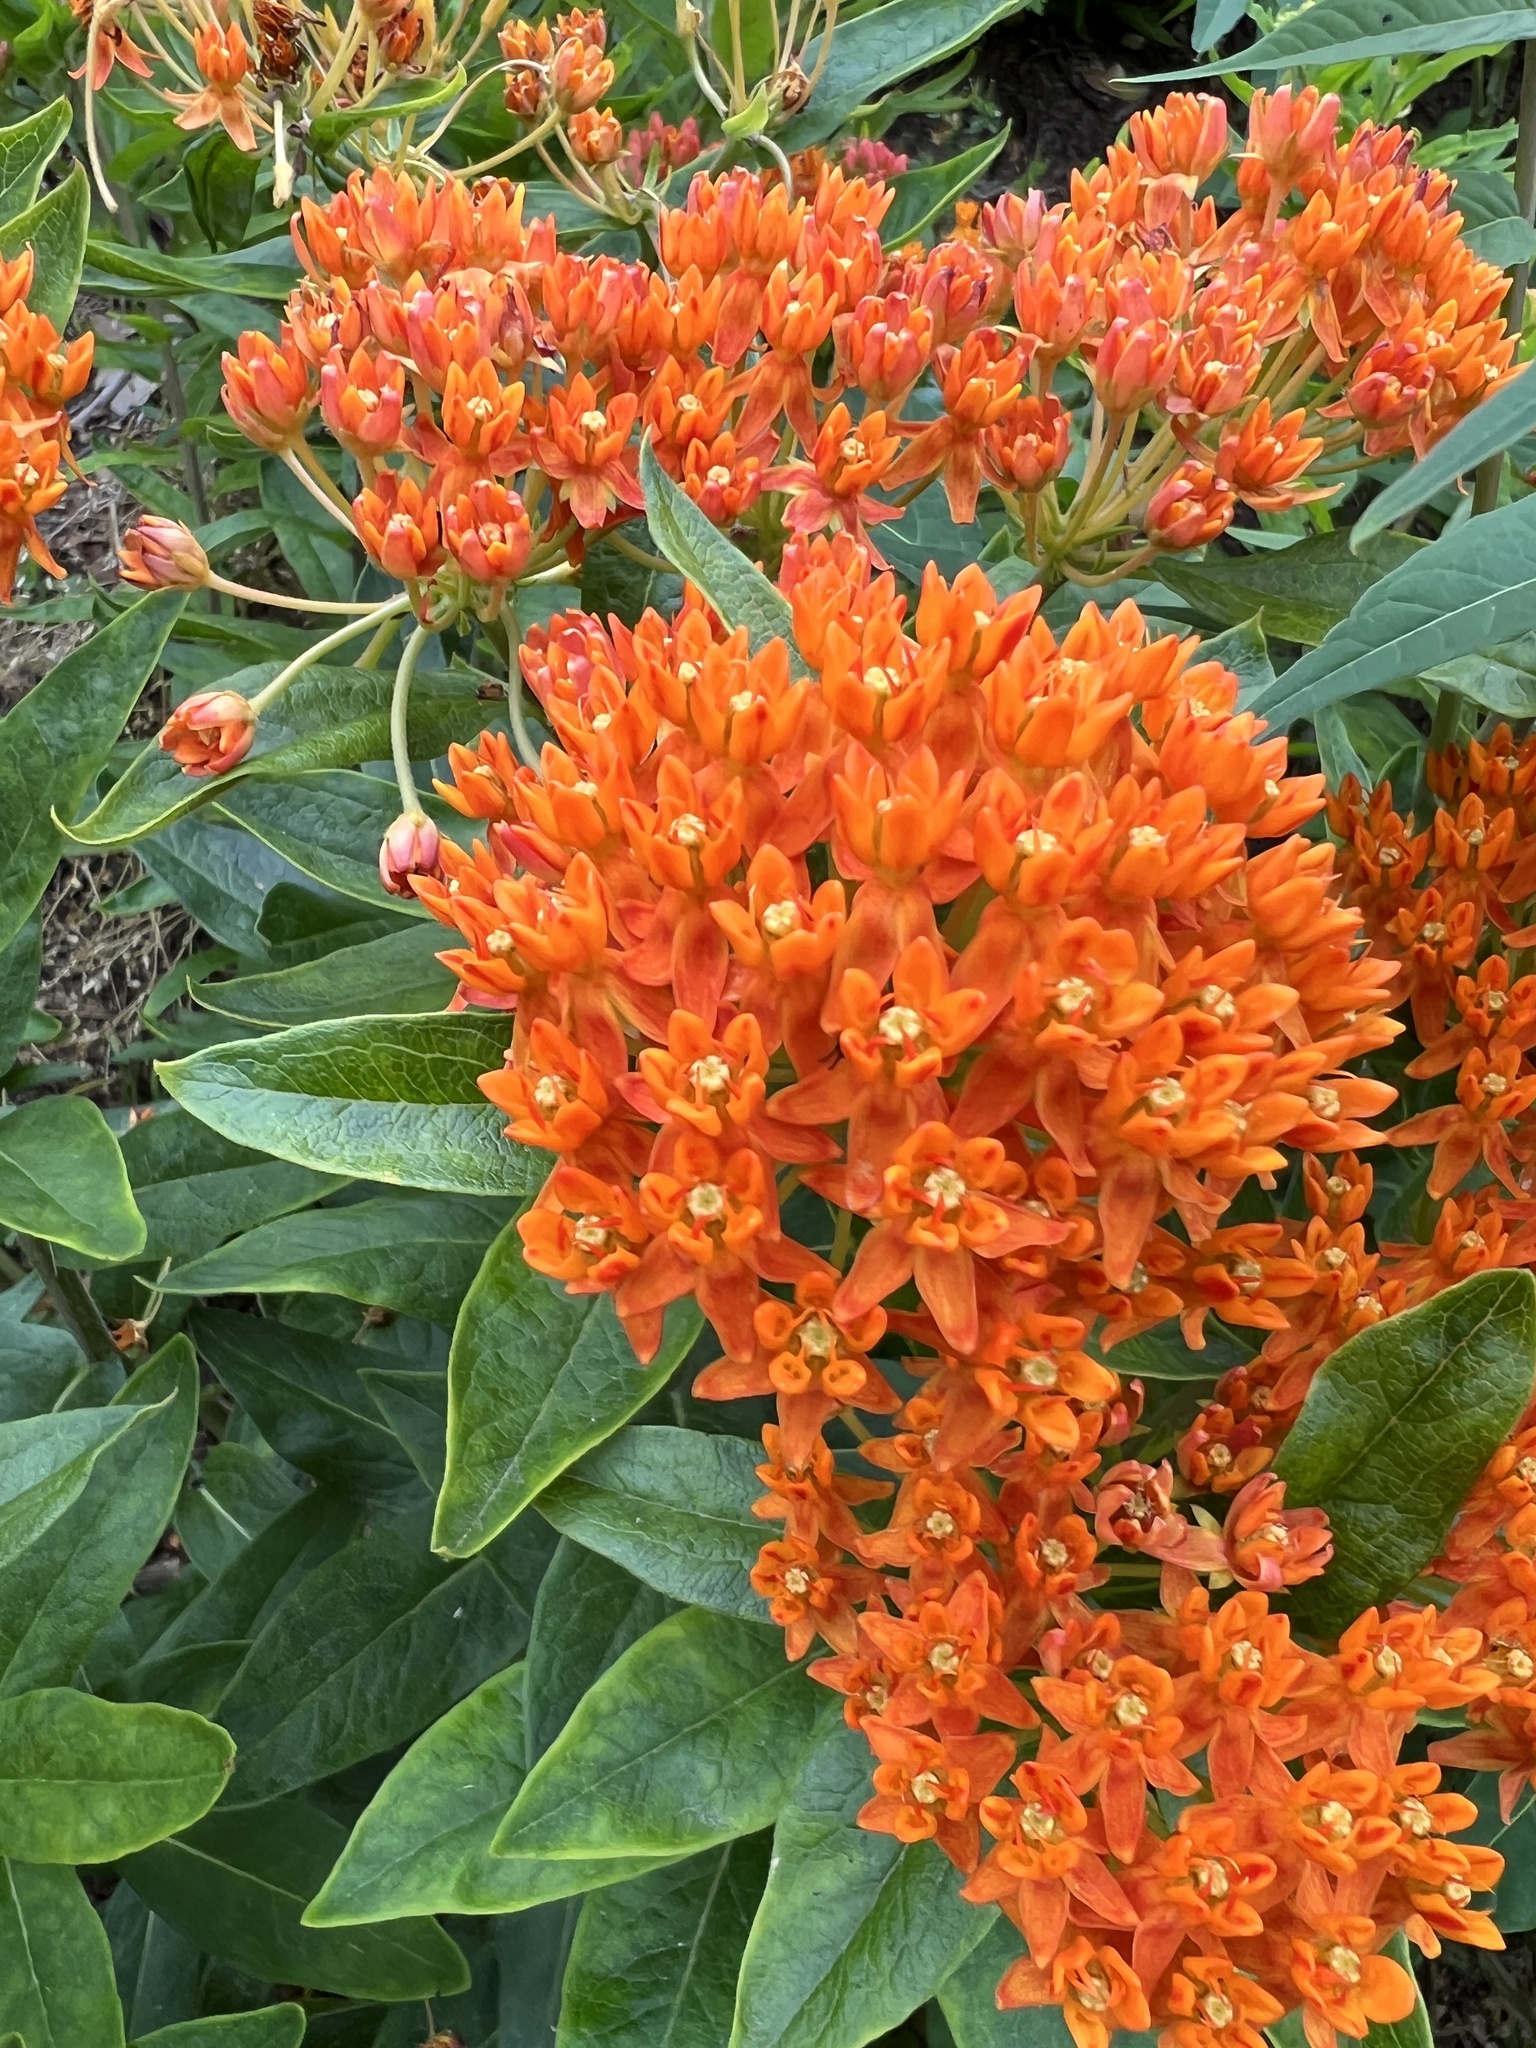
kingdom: Plantae
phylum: Tracheophyta
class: Magnoliopsida
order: Gentianales
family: Apocynaceae
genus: Asclepias
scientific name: Asclepias tuberosa
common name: Butterfly milkweed
